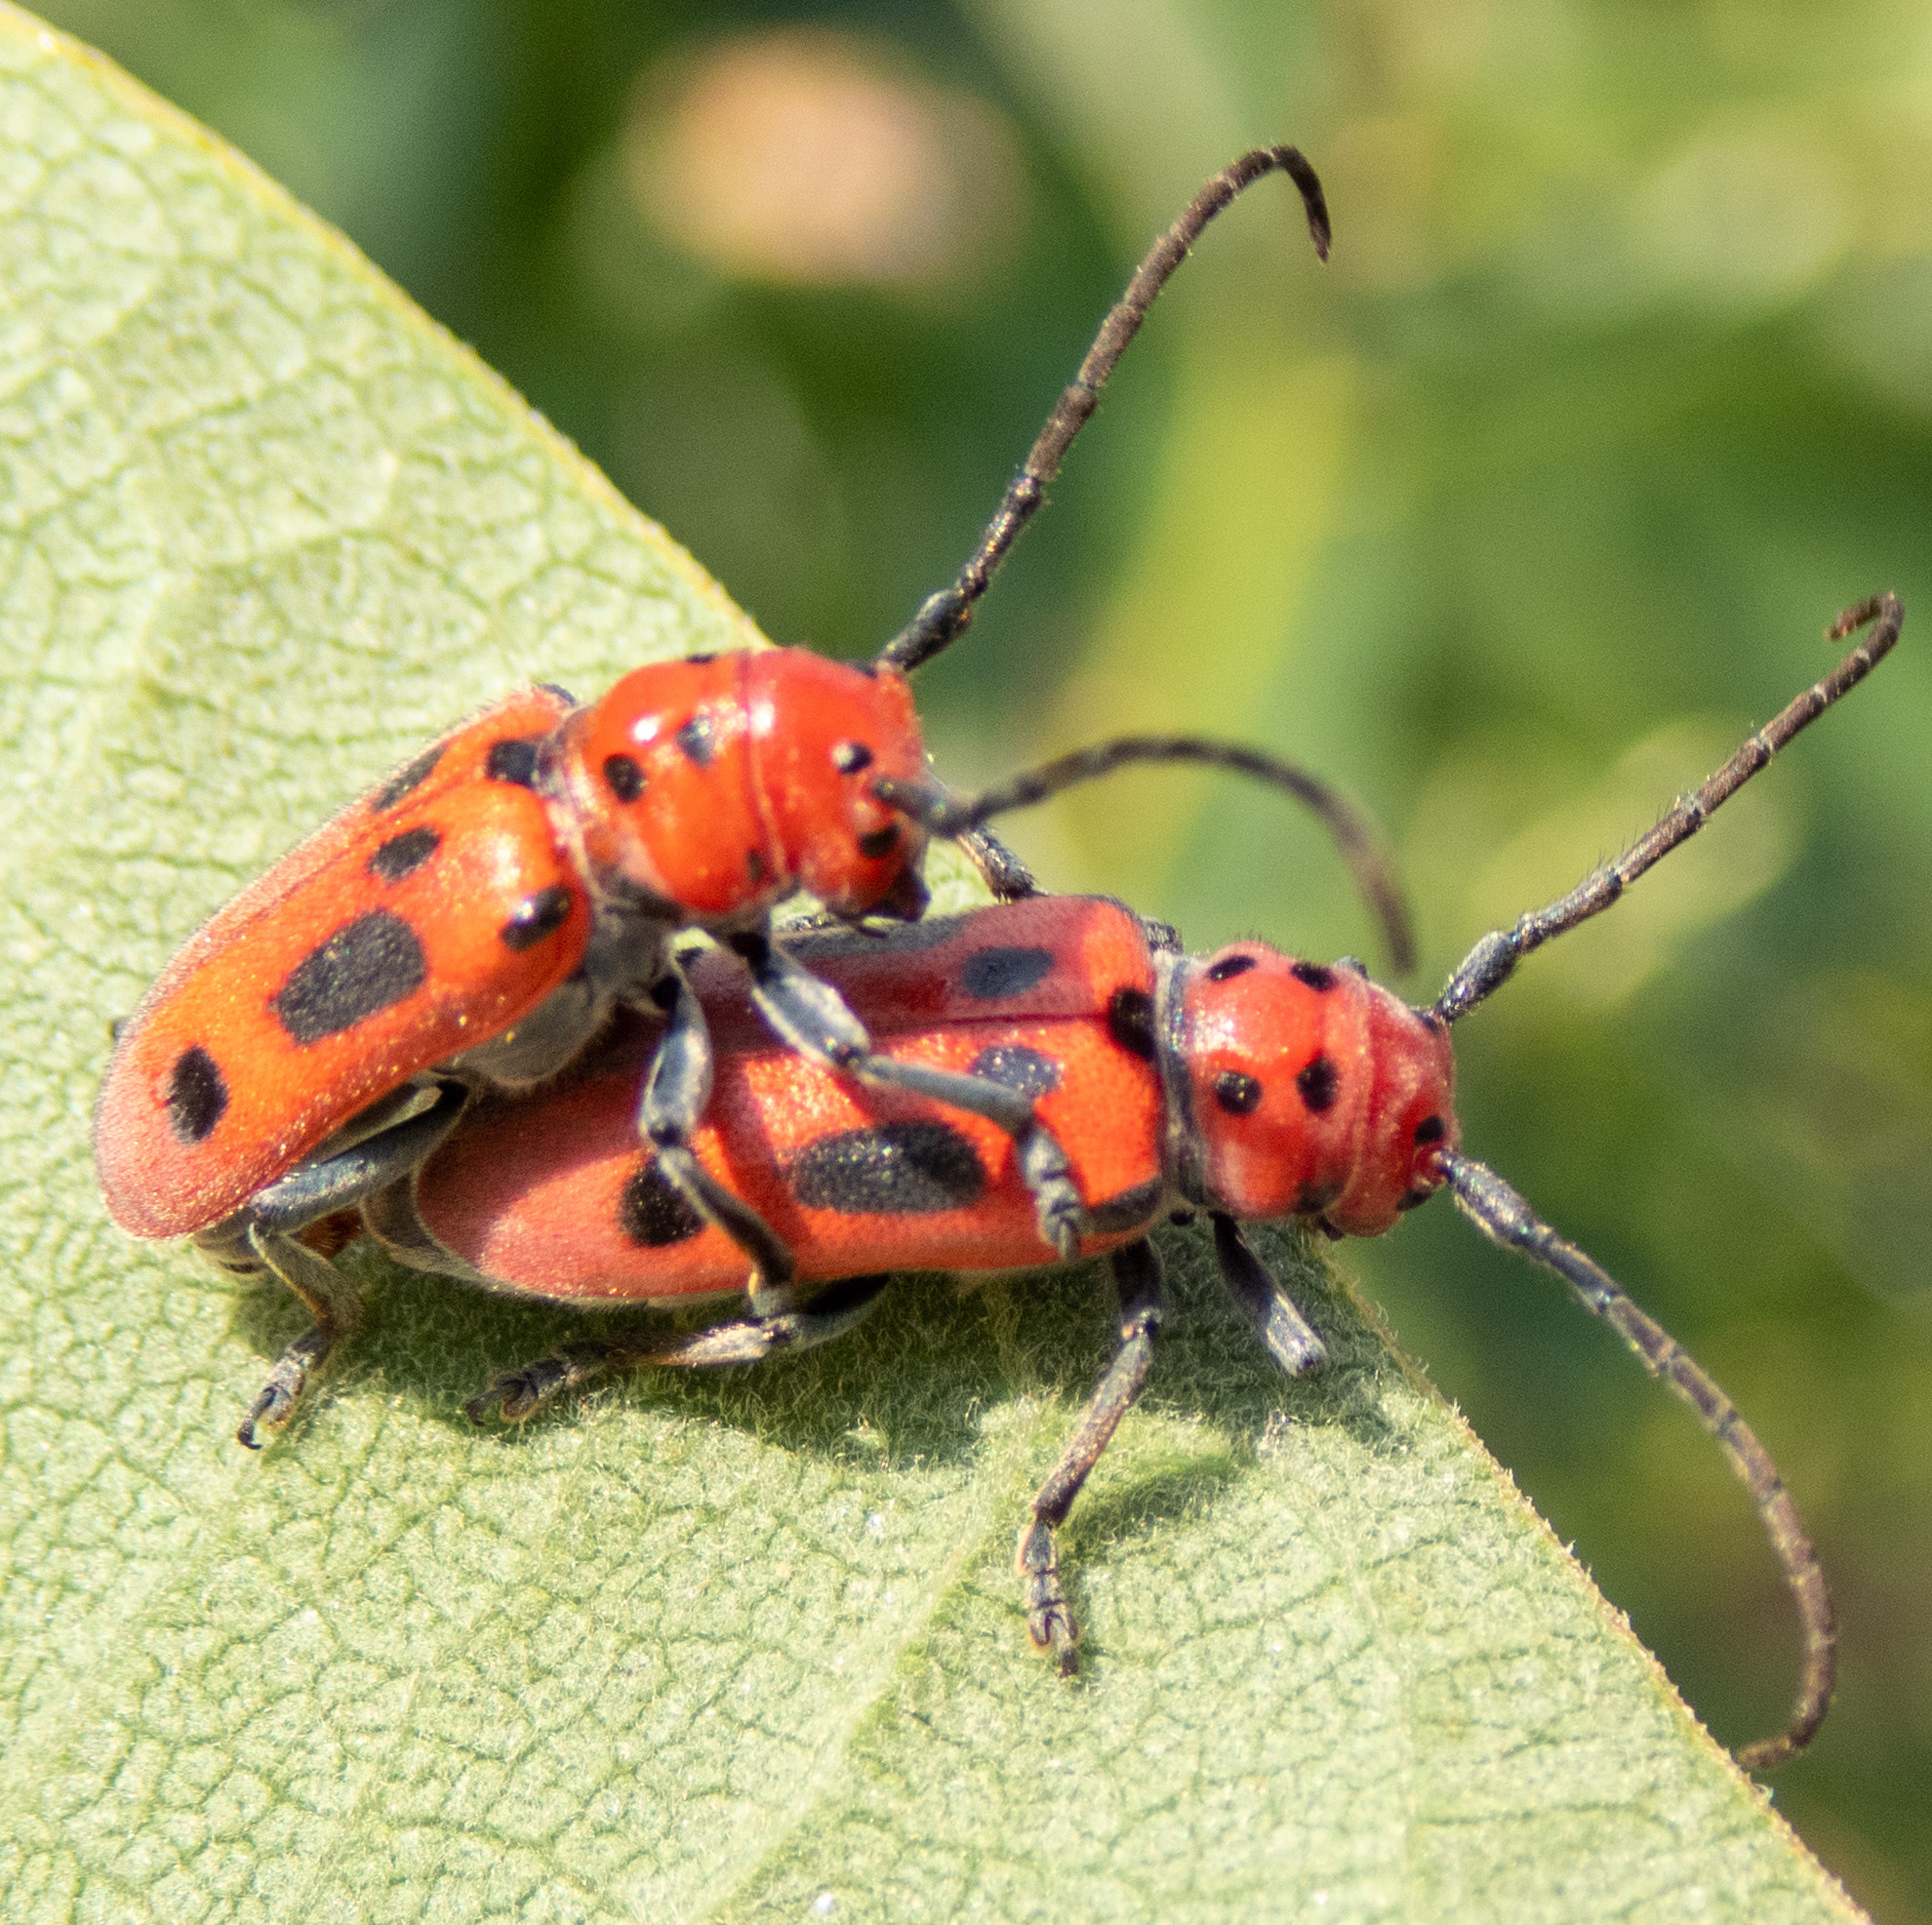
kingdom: Animalia
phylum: Arthropoda
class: Insecta
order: Coleoptera
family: Cerambycidae
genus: Tetraopes
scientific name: Tetraopes tetrophthalmus
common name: Red milkweed beetle
